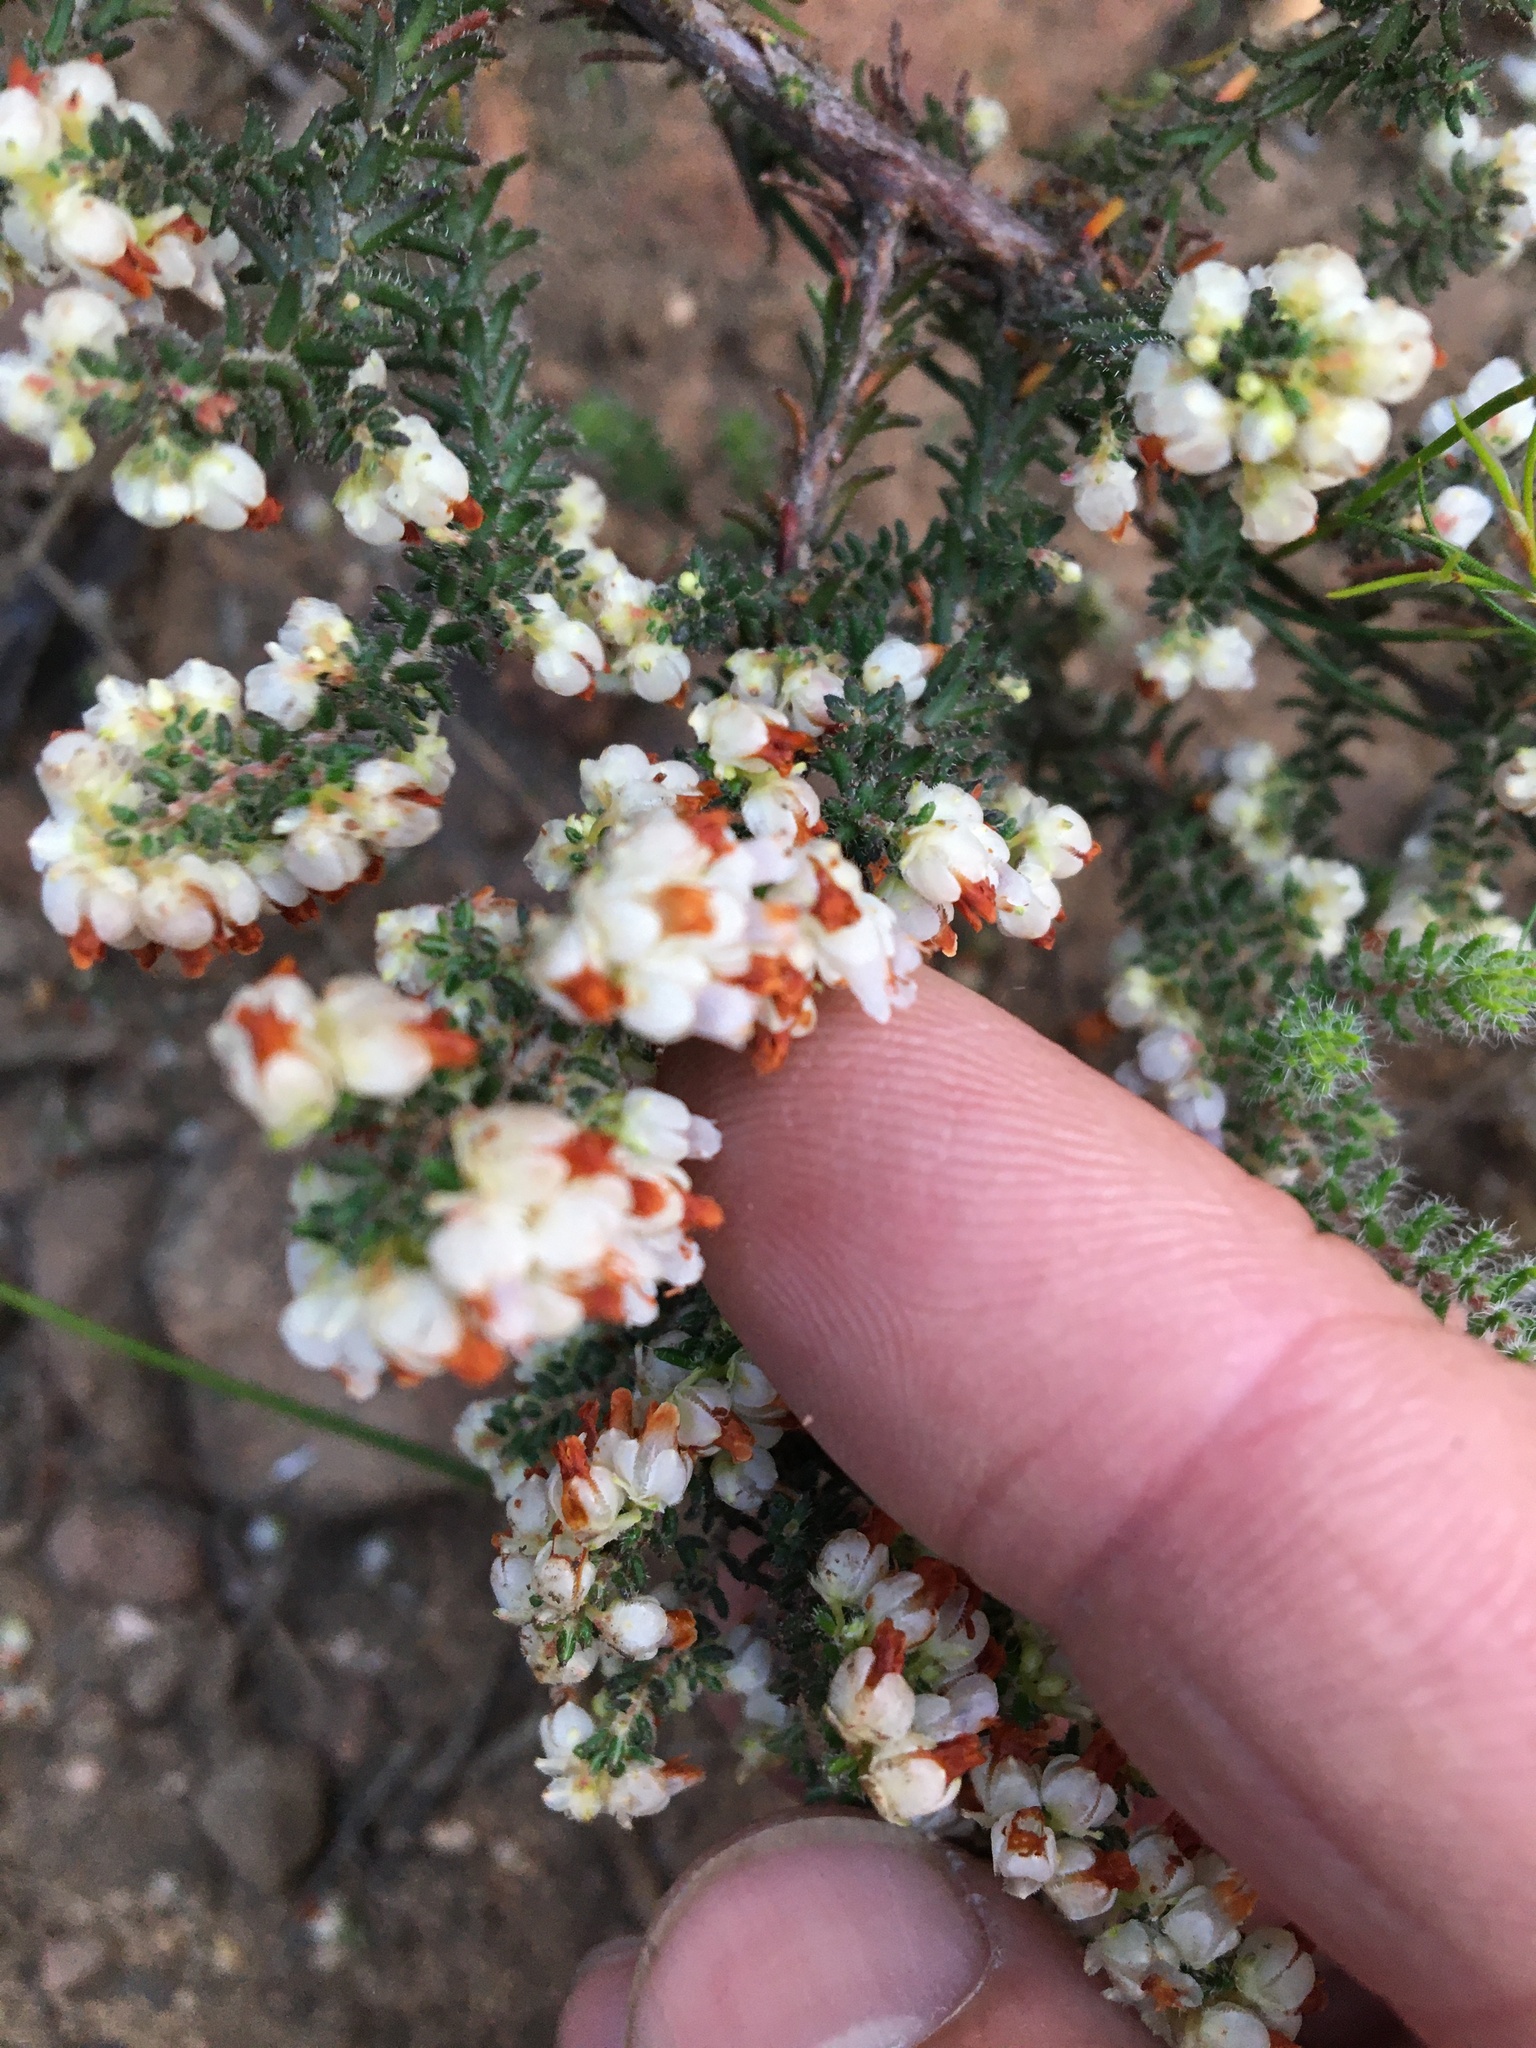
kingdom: Plantae
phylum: Tracheophyta
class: Magnoliopsida
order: Ericales
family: Ericaceae
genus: Erica
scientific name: Erica totta
